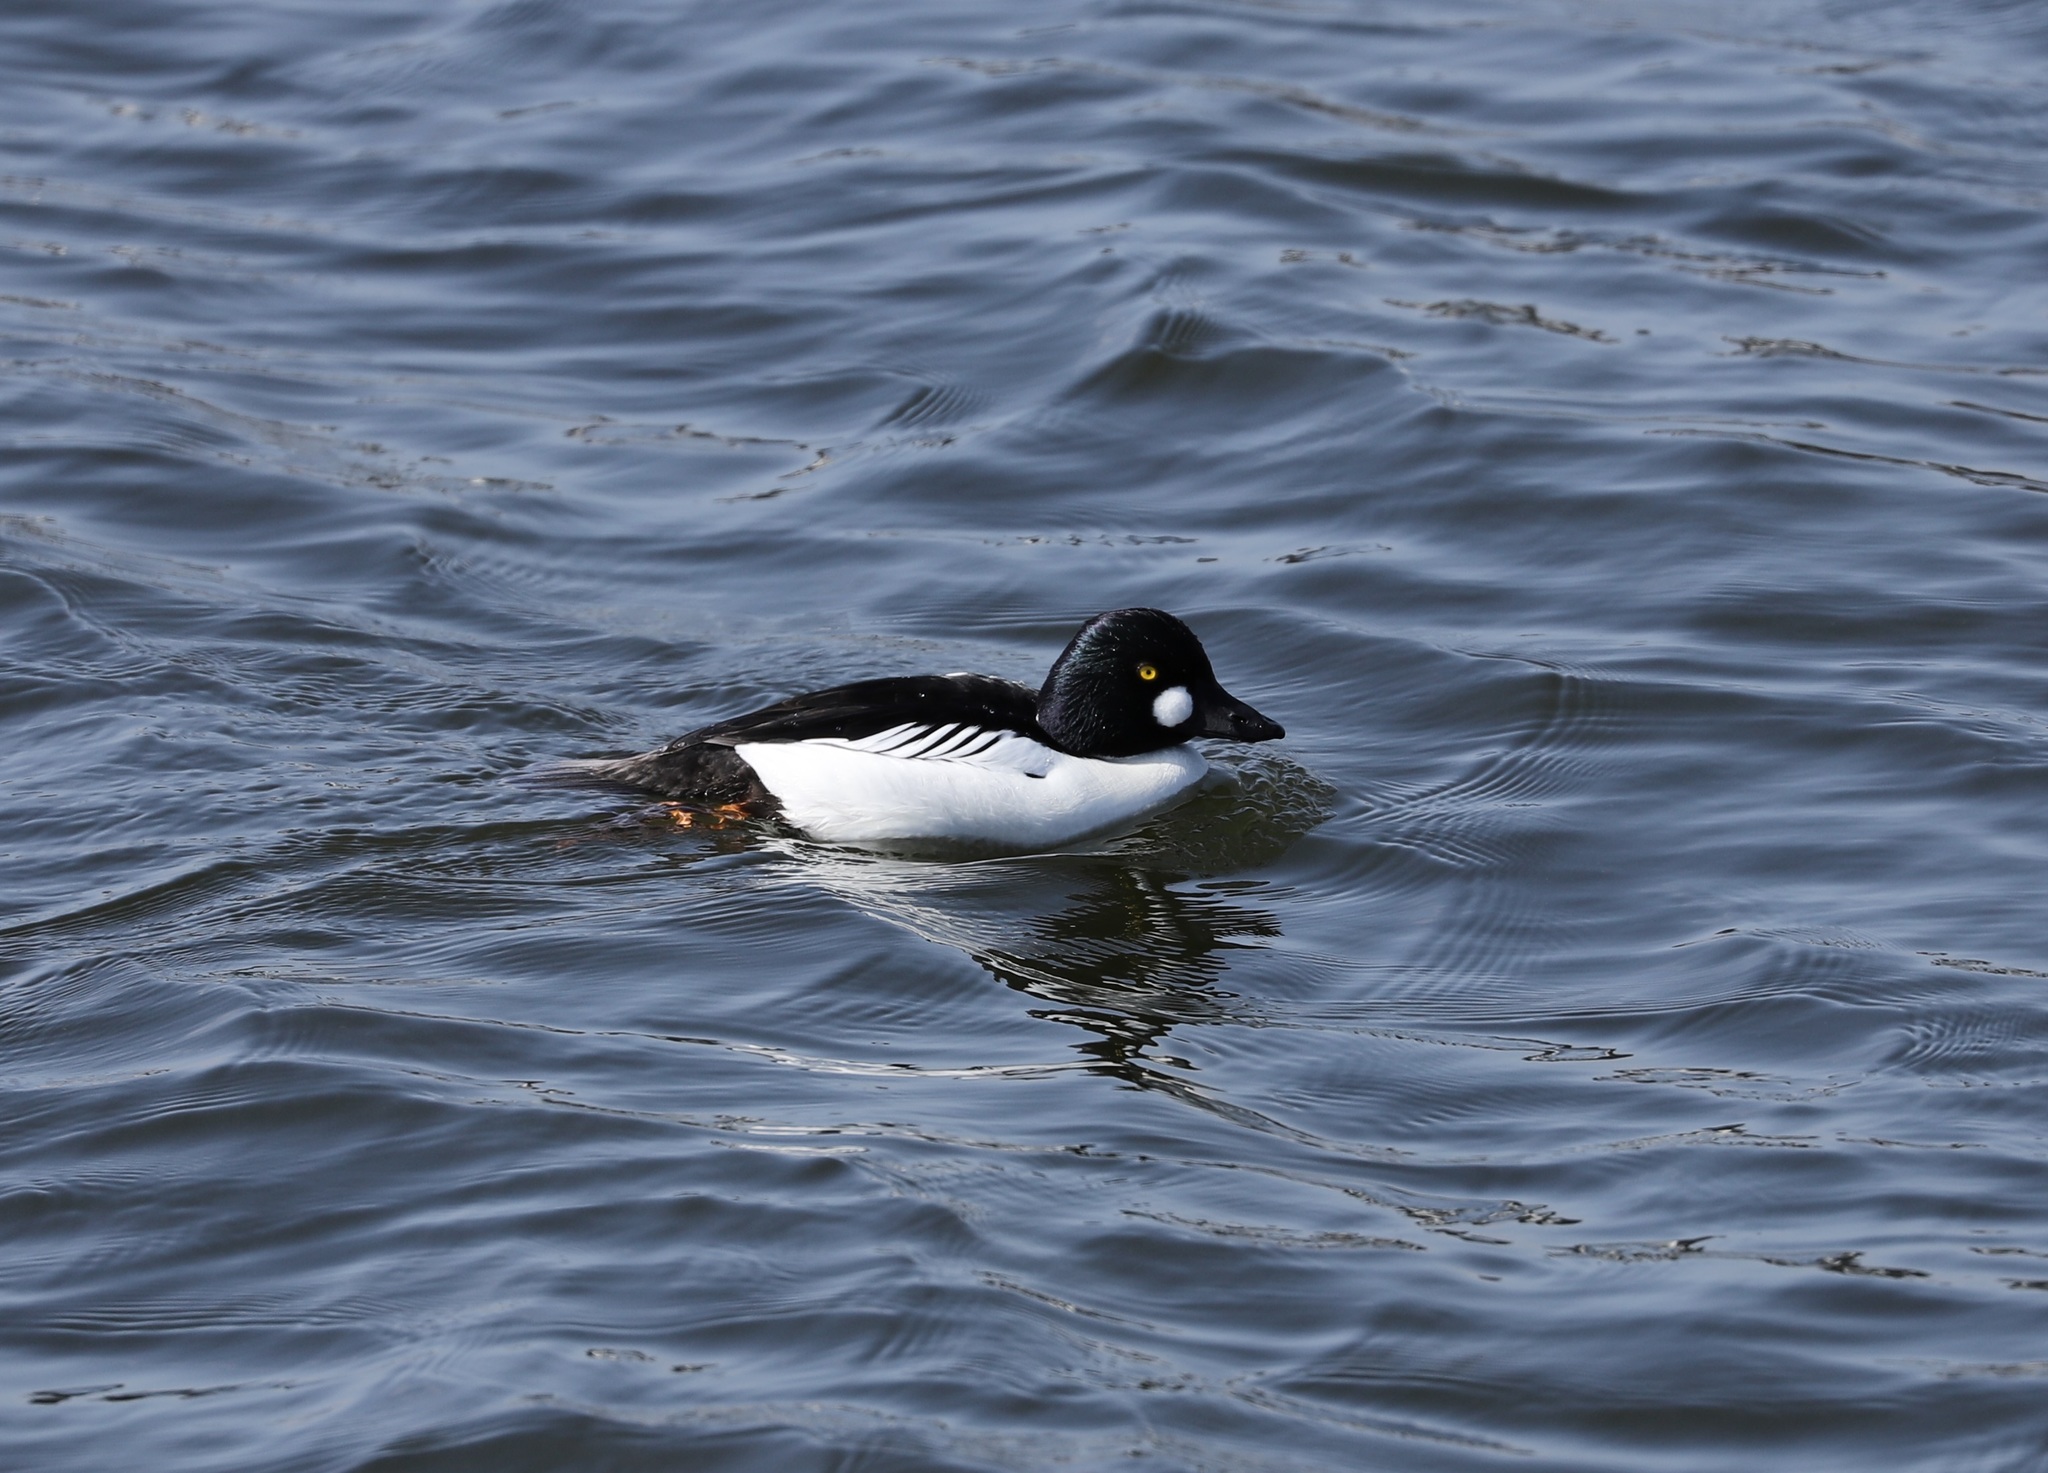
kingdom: Animalia
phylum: Chordata
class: Aves
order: Anseriformes
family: Anatidae
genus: Bucephala
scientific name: Bucephala clangula
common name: Common goldeneye
